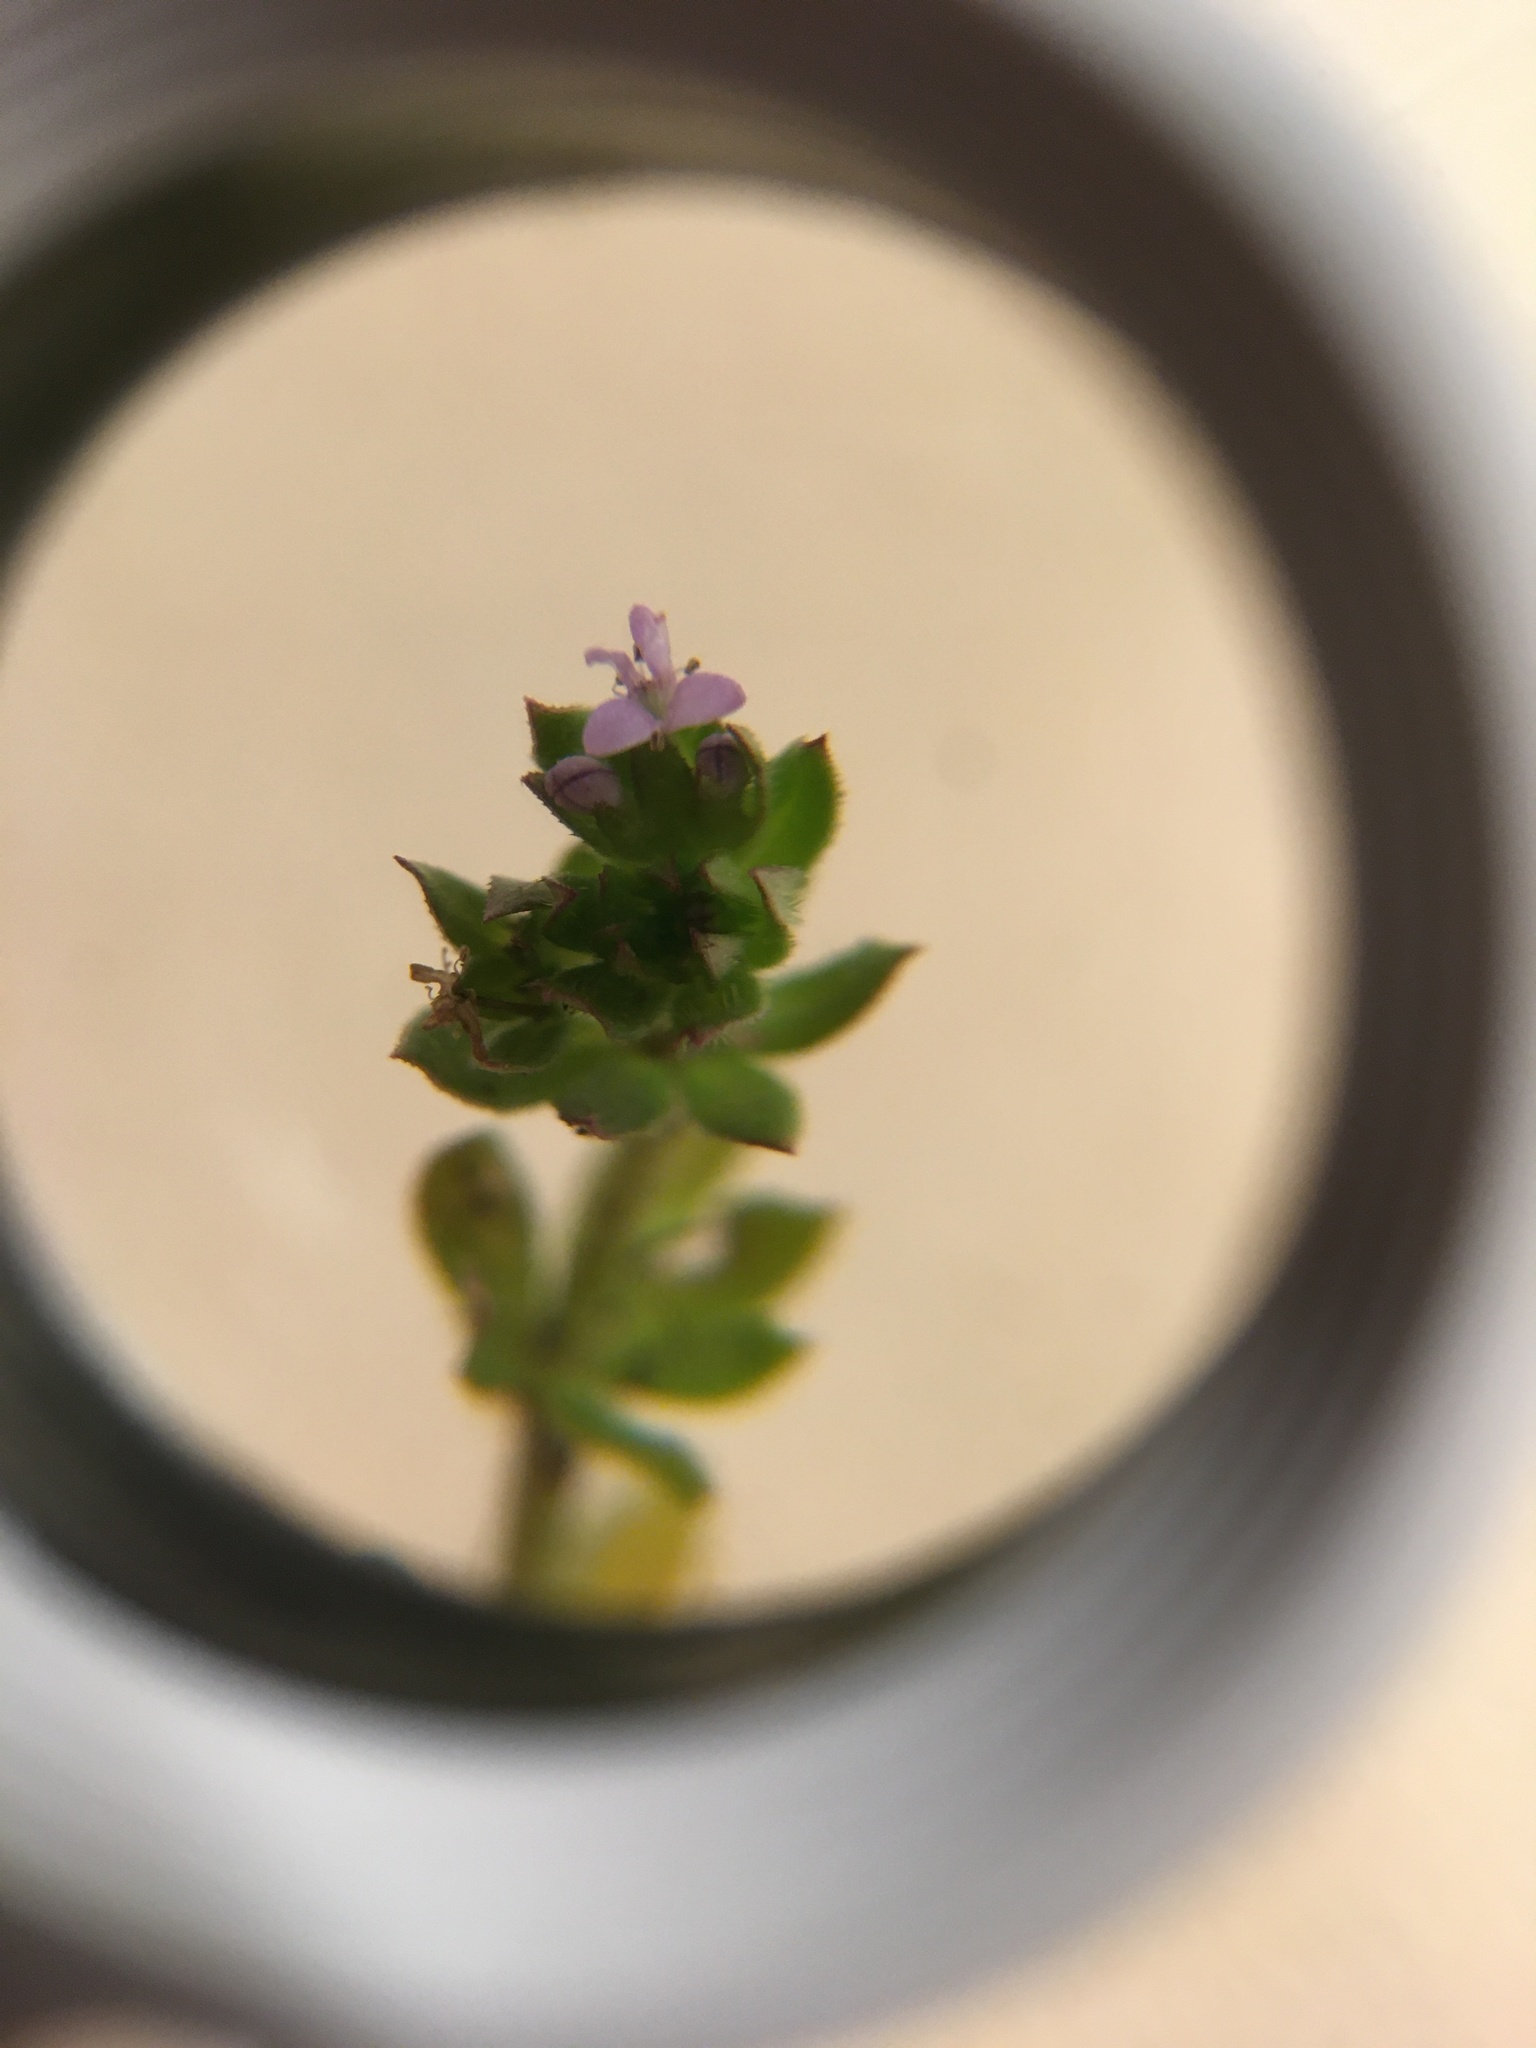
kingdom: Plantae
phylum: Tracheophyta
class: Magnoliopsida
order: Gentianales
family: Rubiaceae
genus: Sherardia
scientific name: Sherardia arvensis
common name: Field madder
